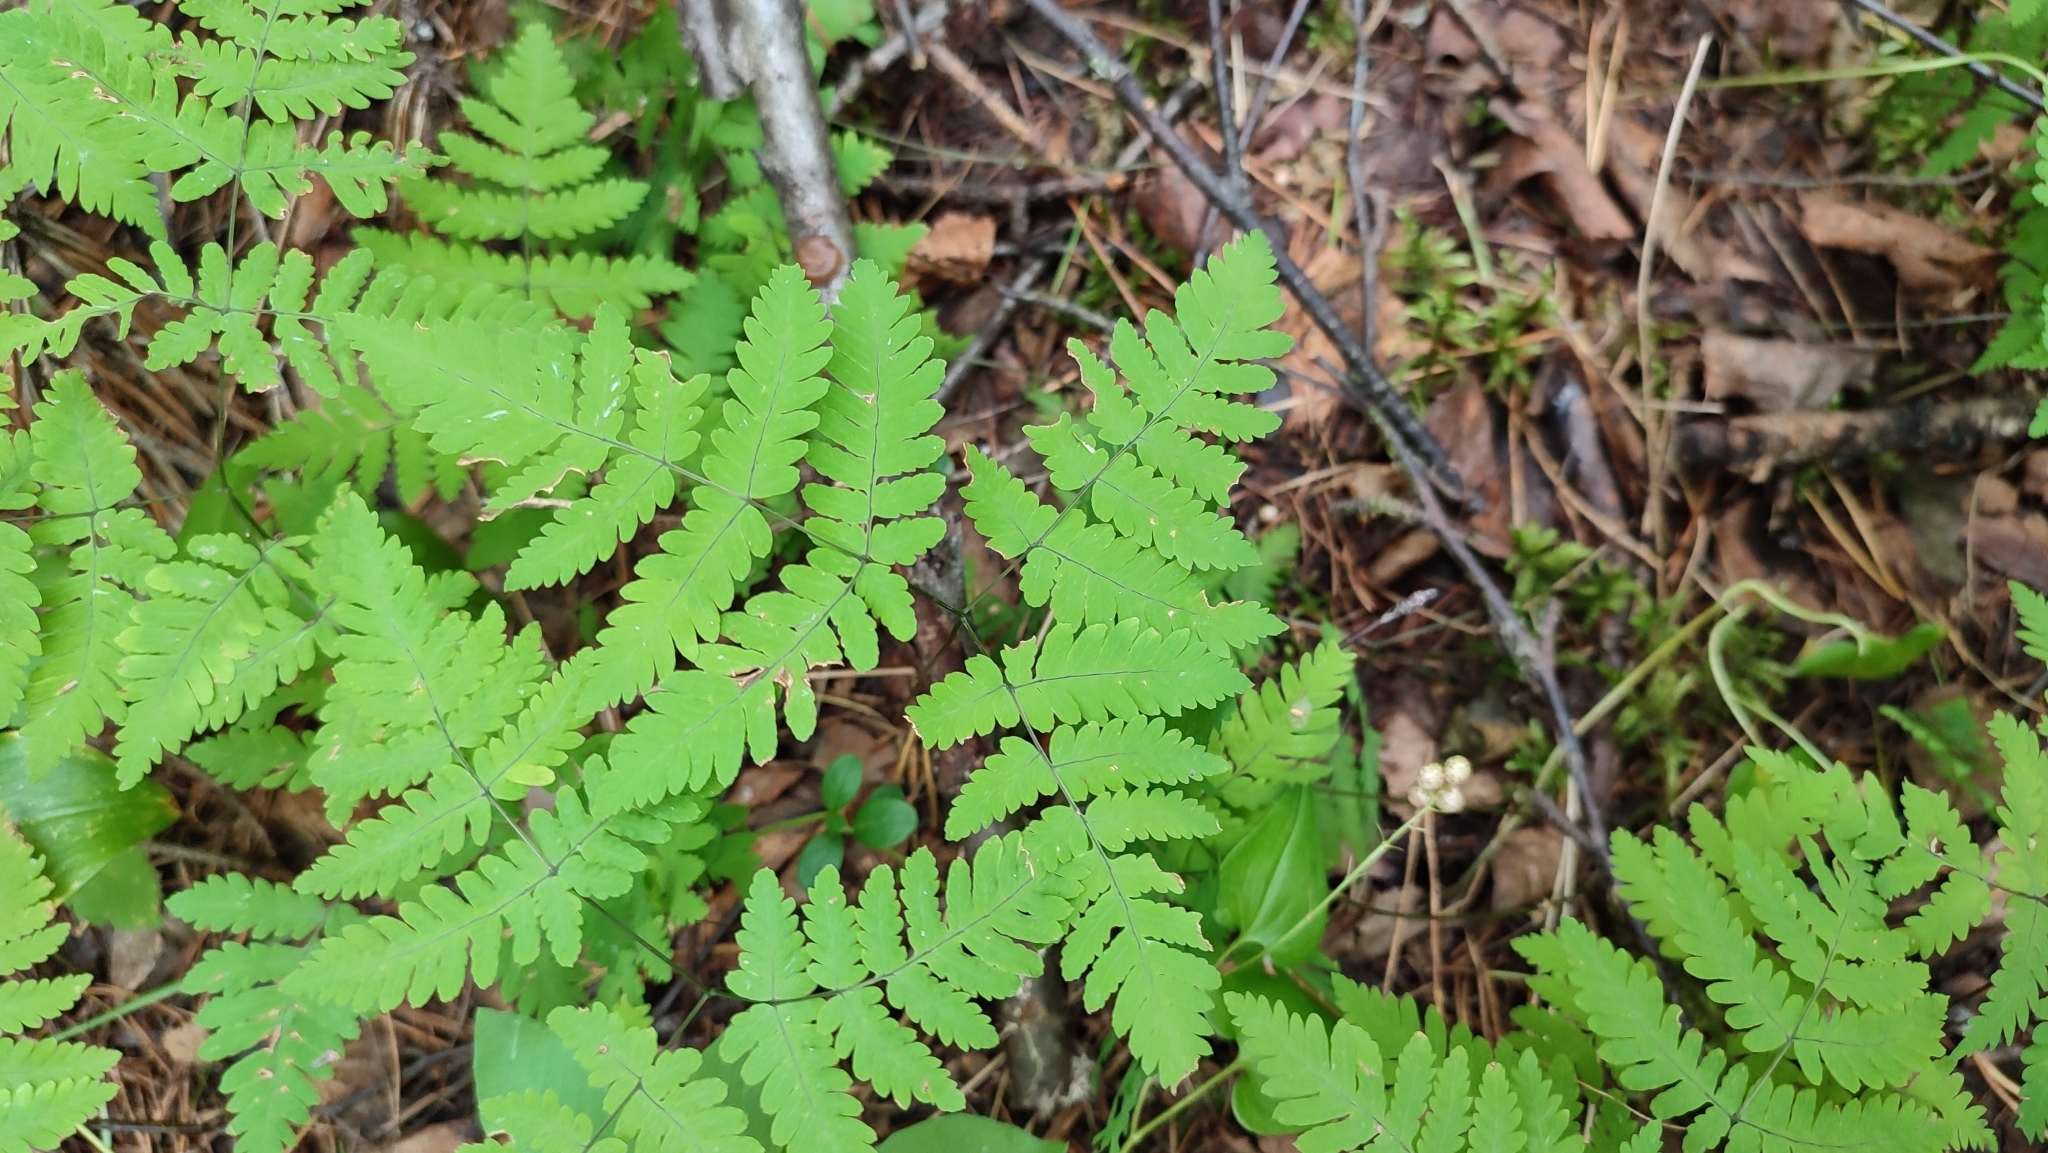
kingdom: Plantae
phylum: Tracheophyta
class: Polypodiopsida
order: Polypodiales
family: Cystopteridaceae
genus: Gymnocarpium
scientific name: Gymnocarpium dryopteris
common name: Oak fern
